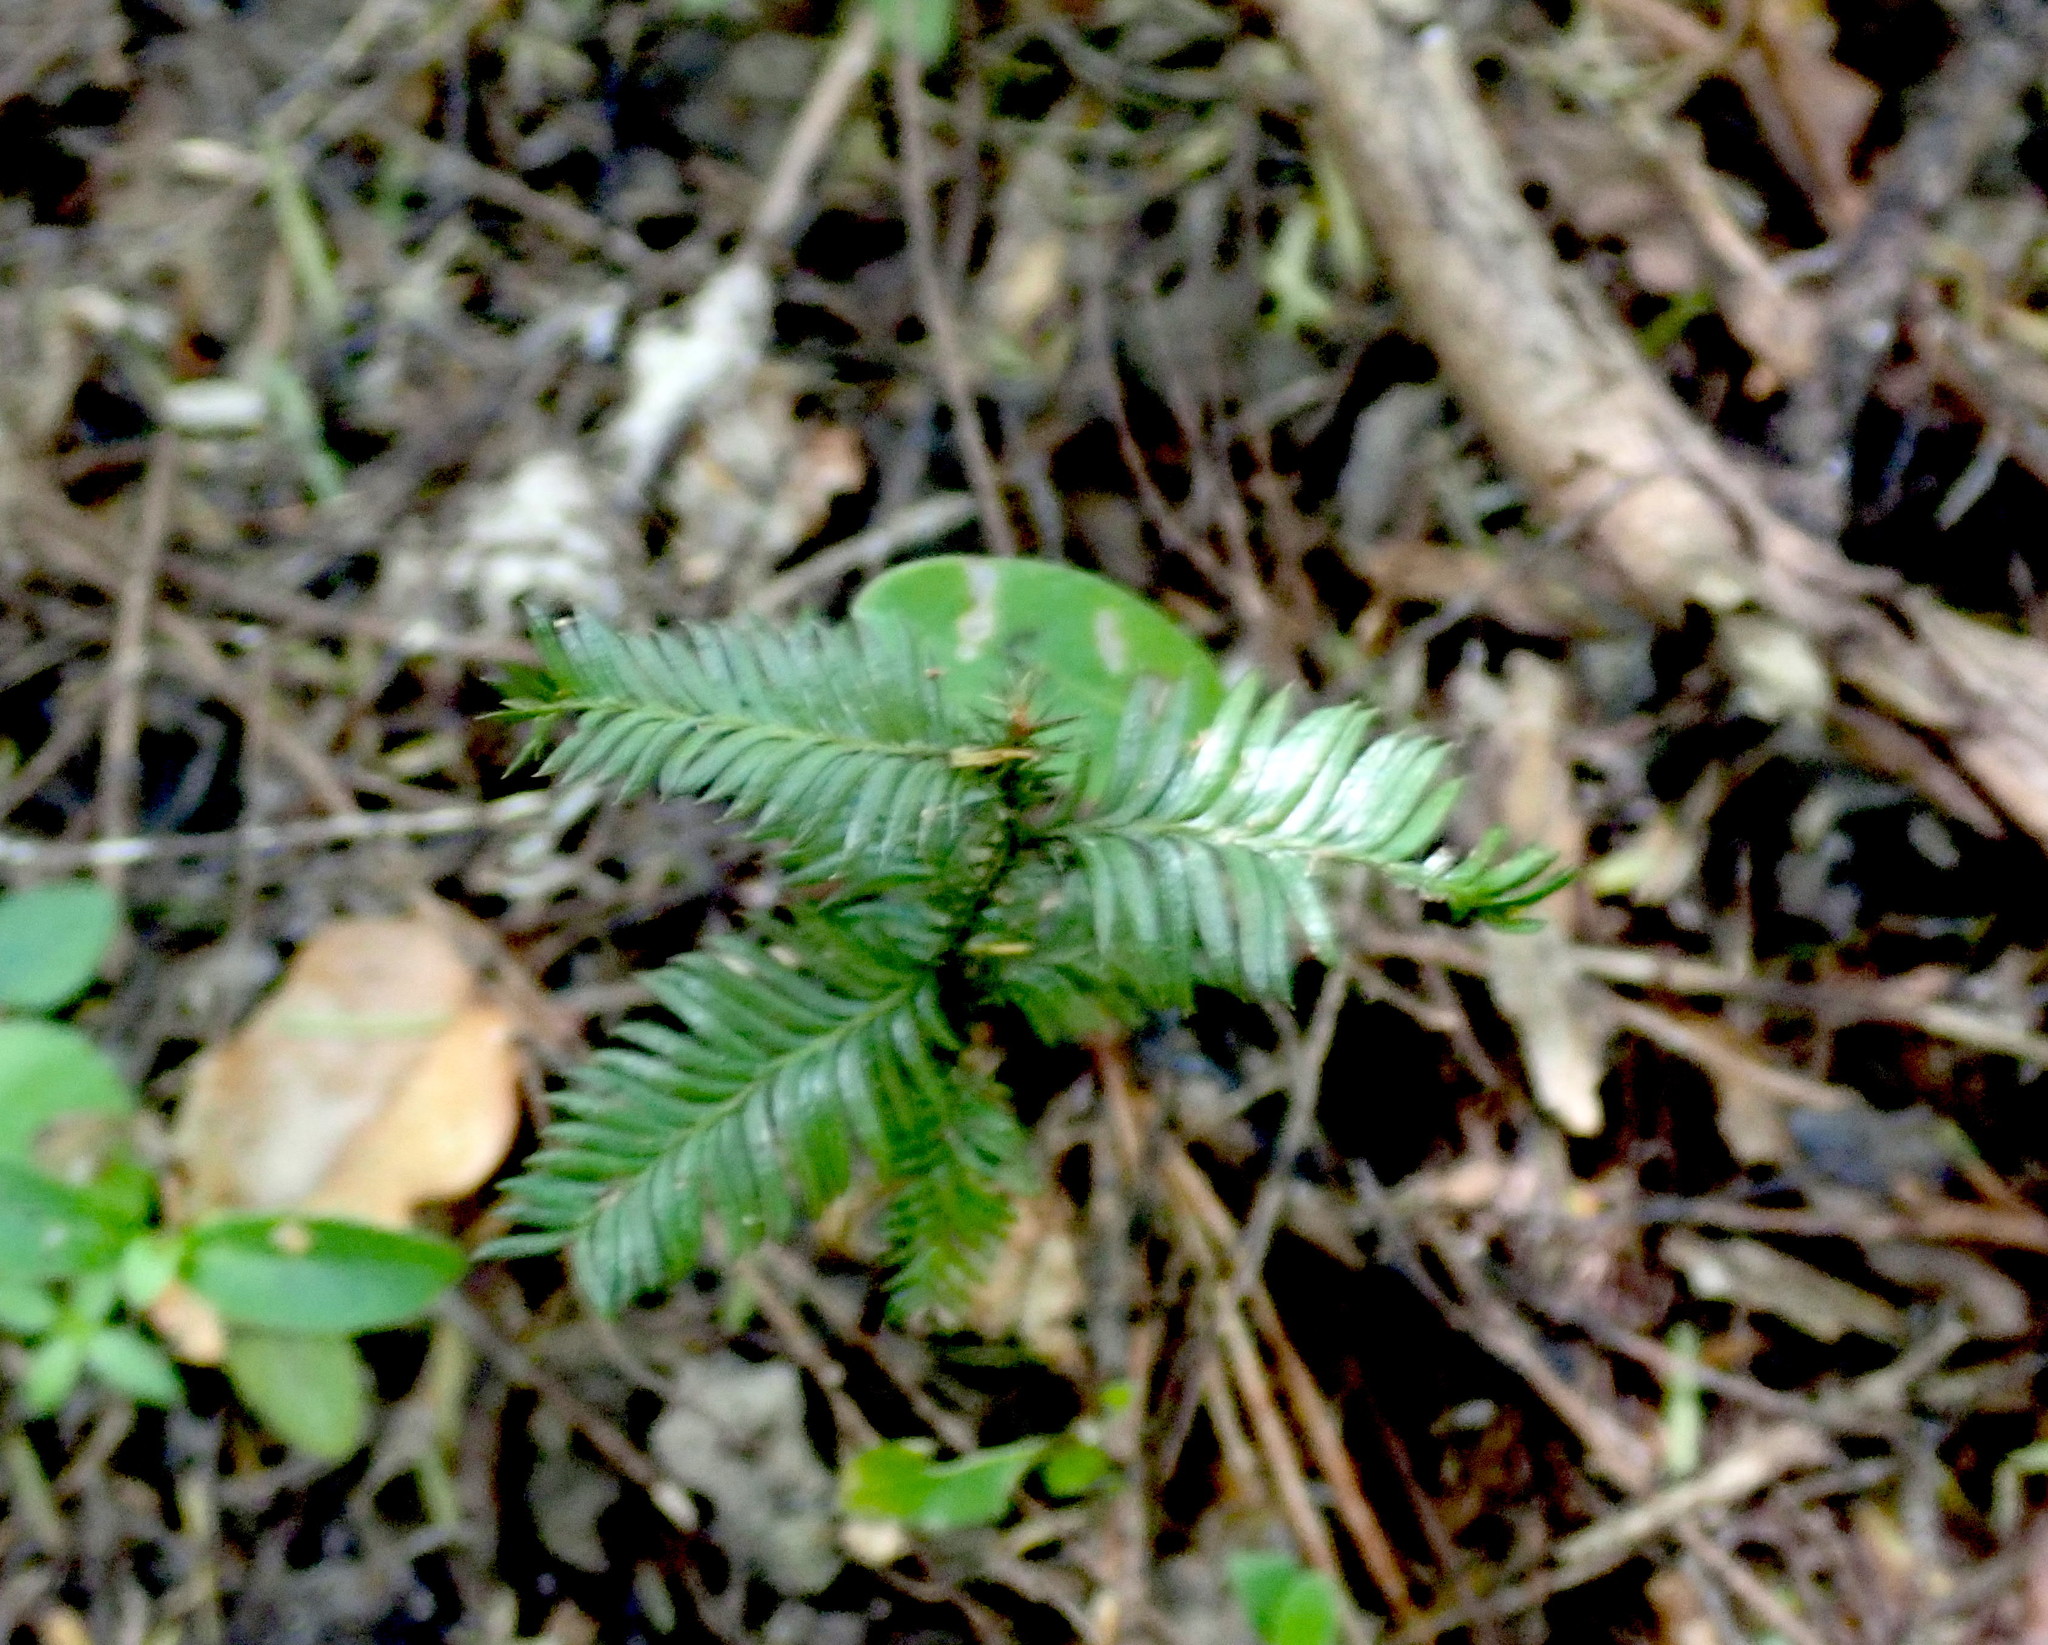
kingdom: Plantae
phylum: Tracheophyta
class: Pinopsida
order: Pinales
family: Podocarpaceae
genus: Dacrycarpus
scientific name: Dacrycarpus dacrydioides
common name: White pine
